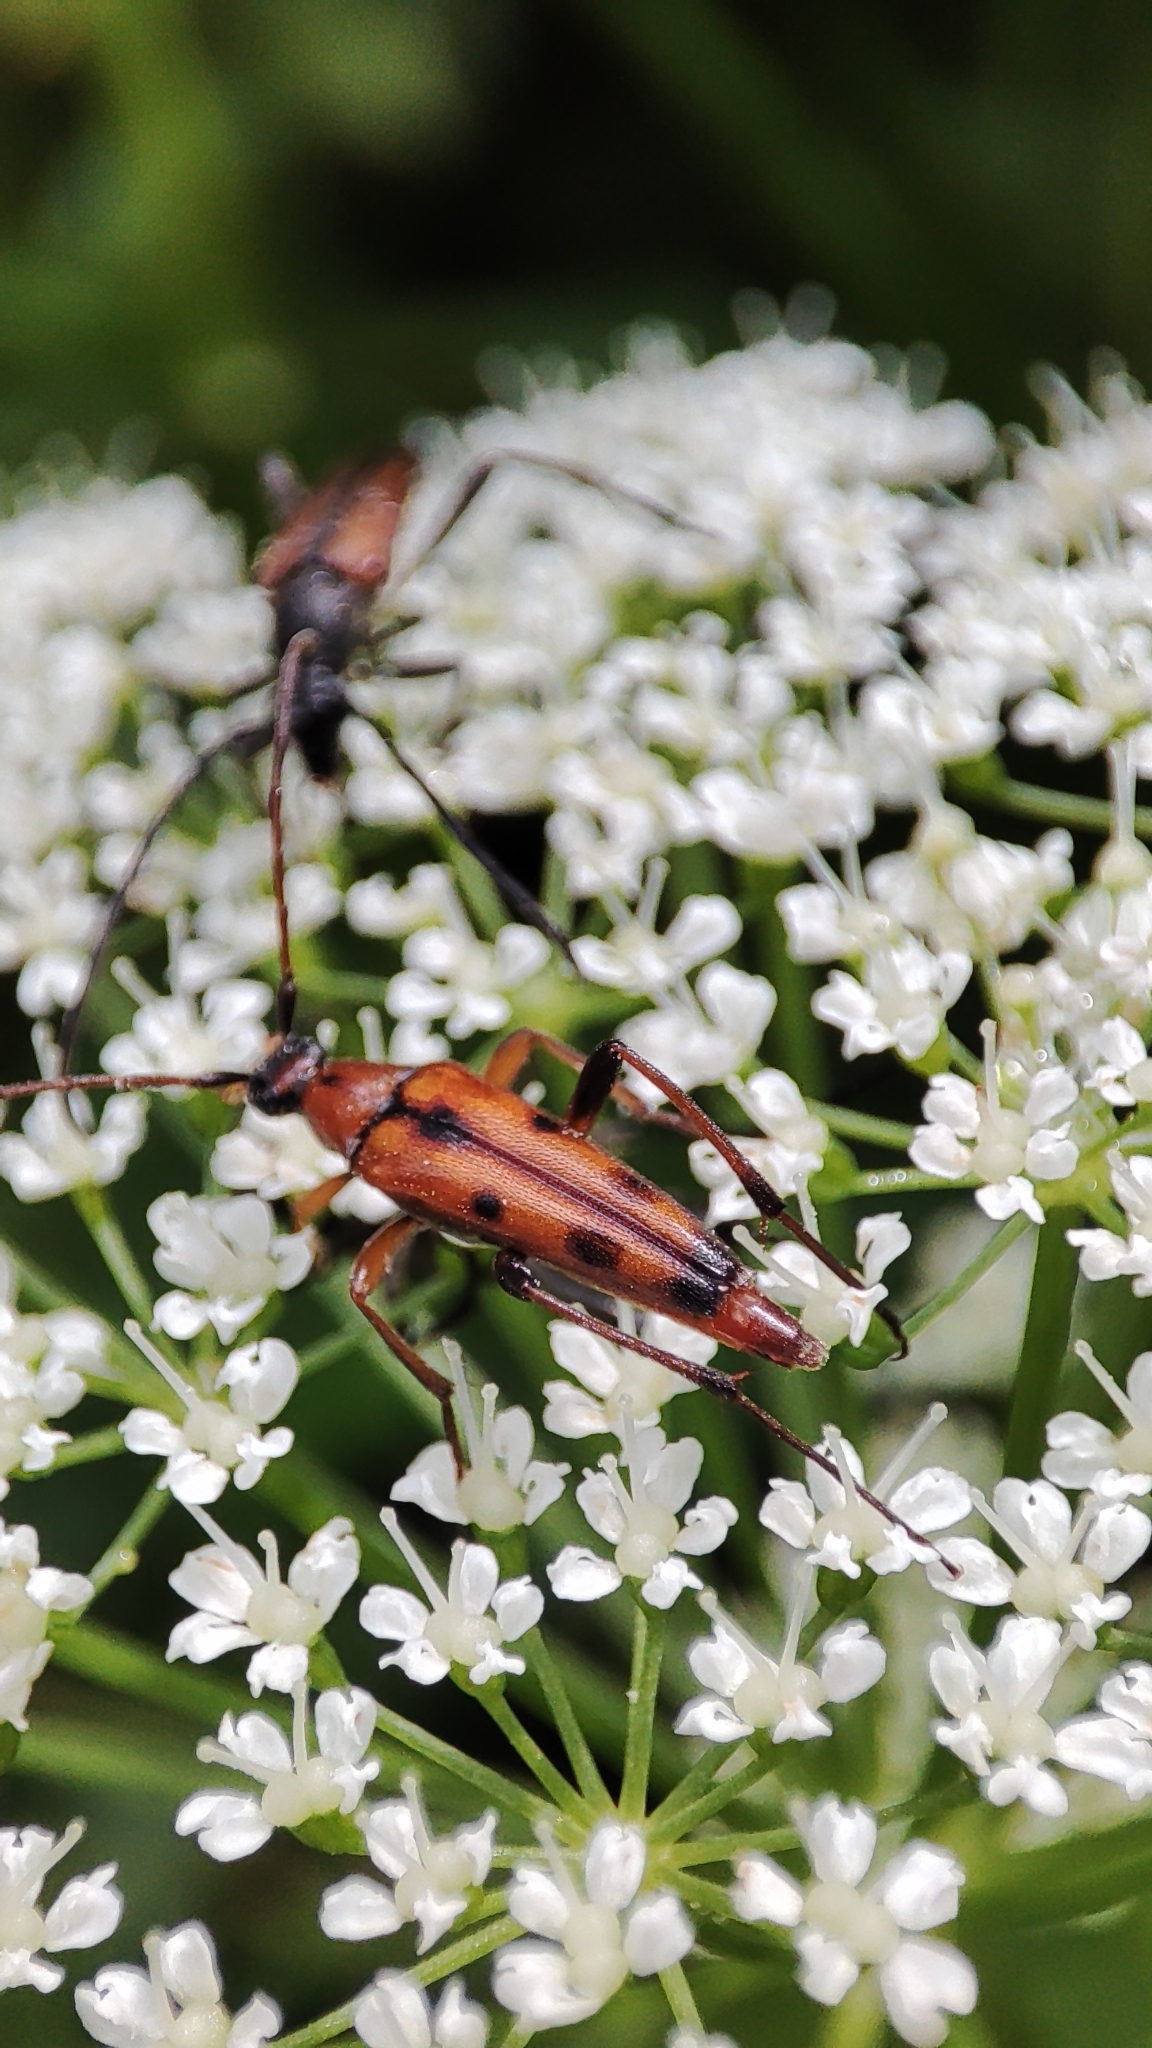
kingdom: Animalia
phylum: Arthropoda
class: Insecta
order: Coleoptera
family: Cerambycidae
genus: Stenurella
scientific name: Stenurella septempunctata
